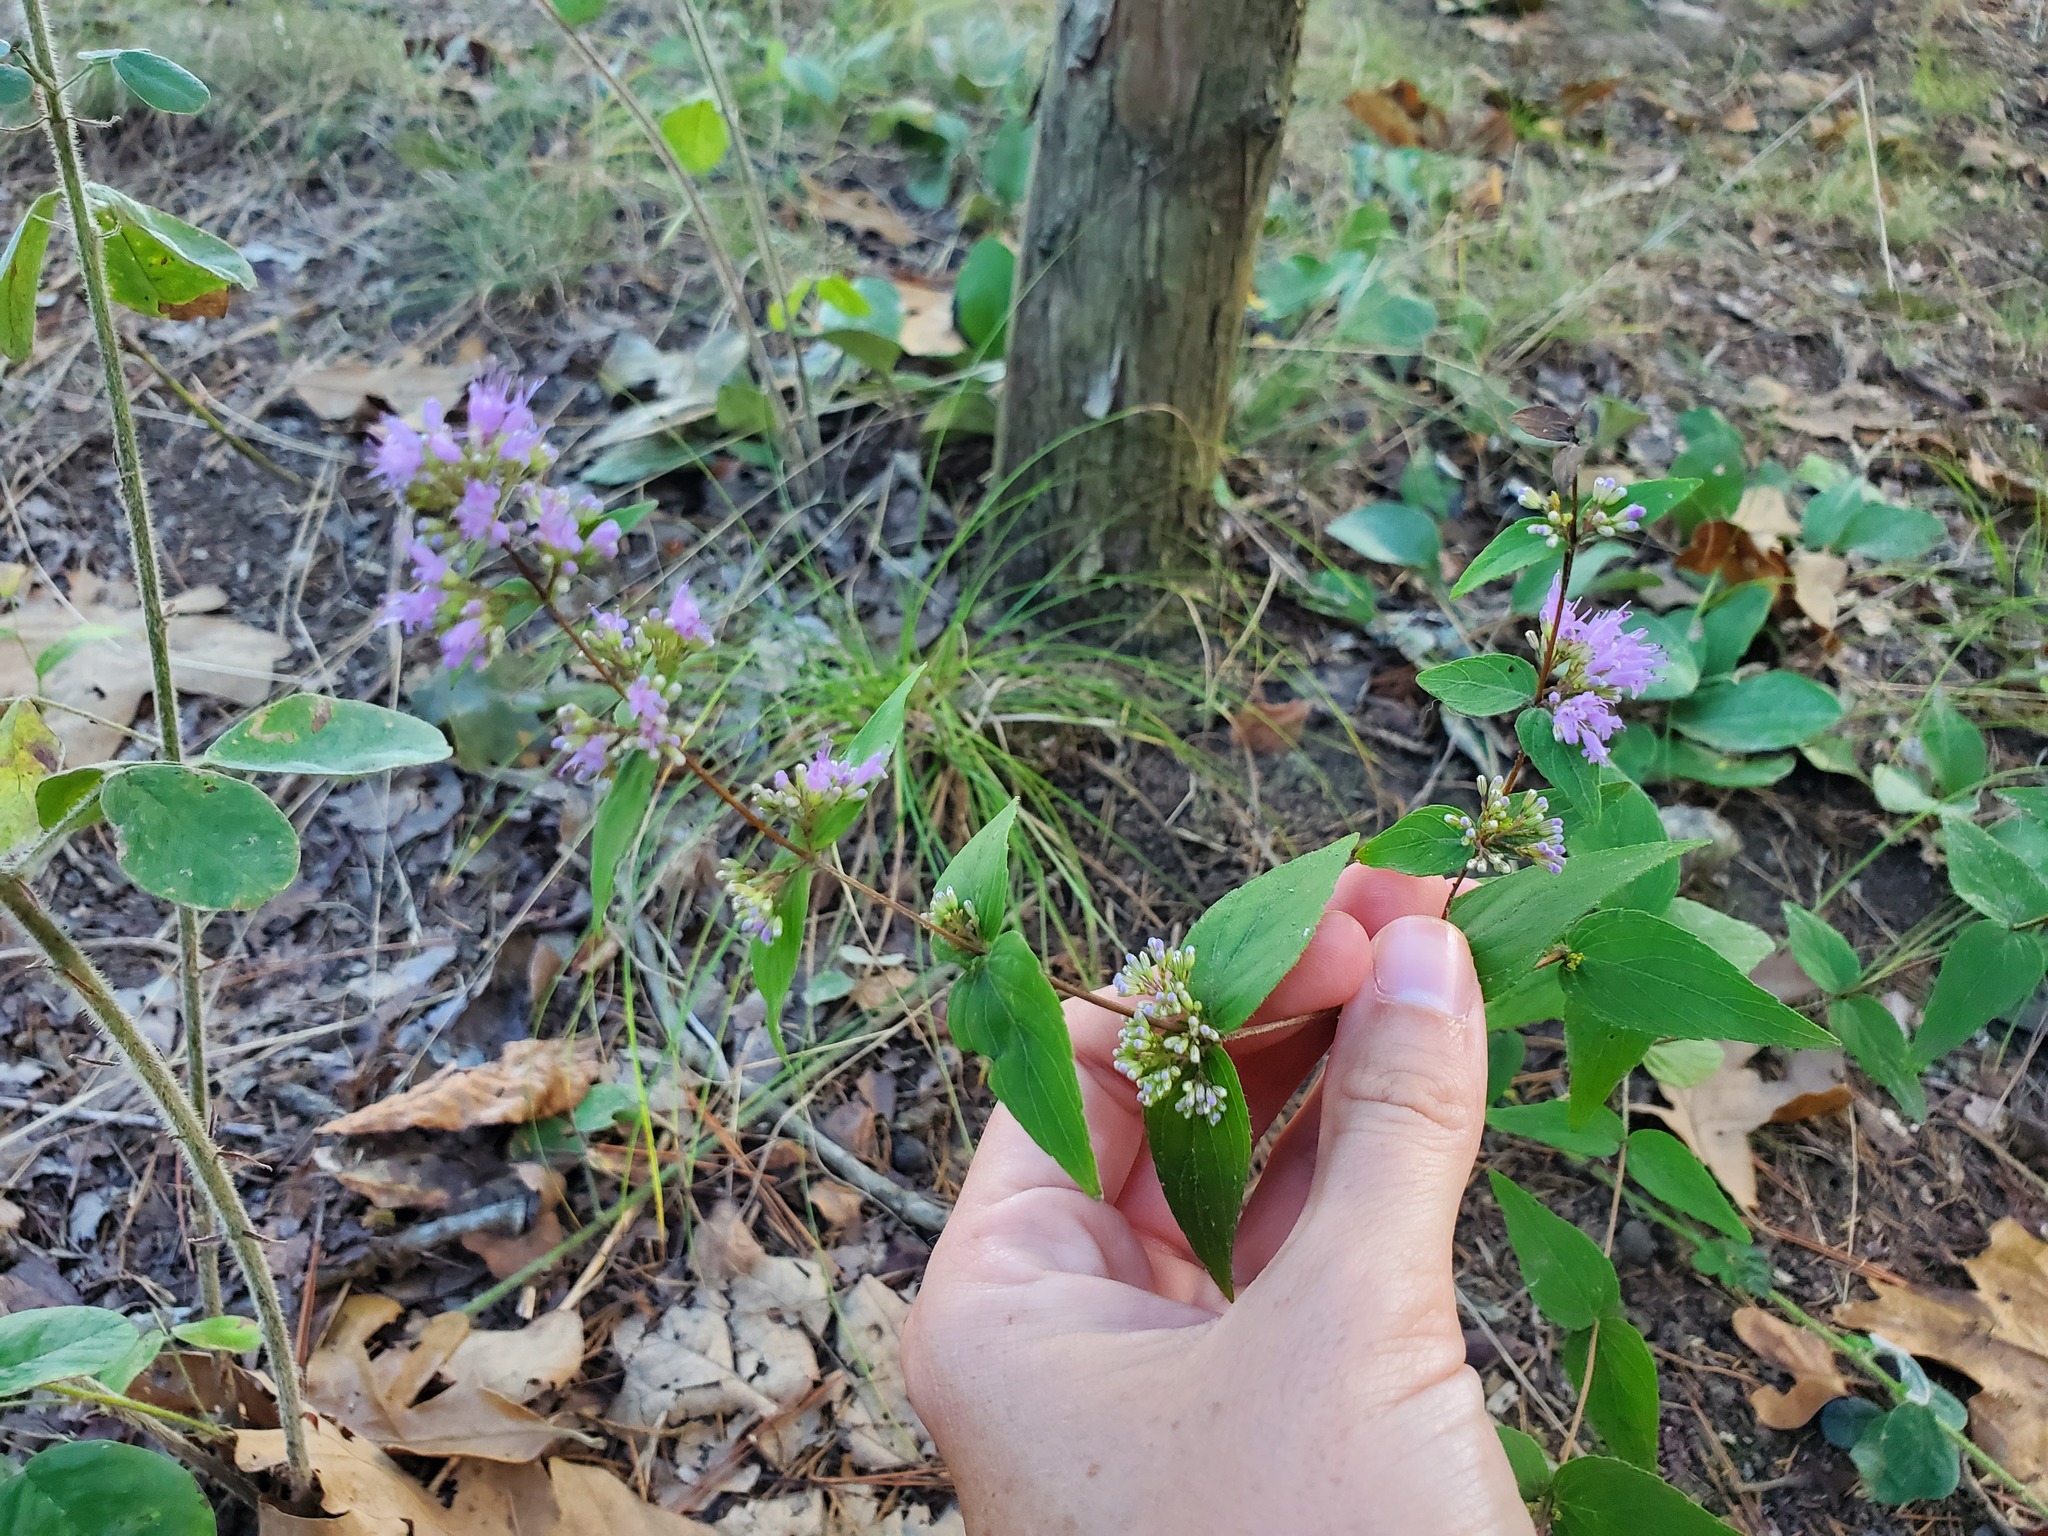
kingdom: Plantae
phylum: Tracheophyta
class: Magnoliopsida
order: Lamiales
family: Lamiaceae
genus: Cunila
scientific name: Cunila origanoides
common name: American dittany
